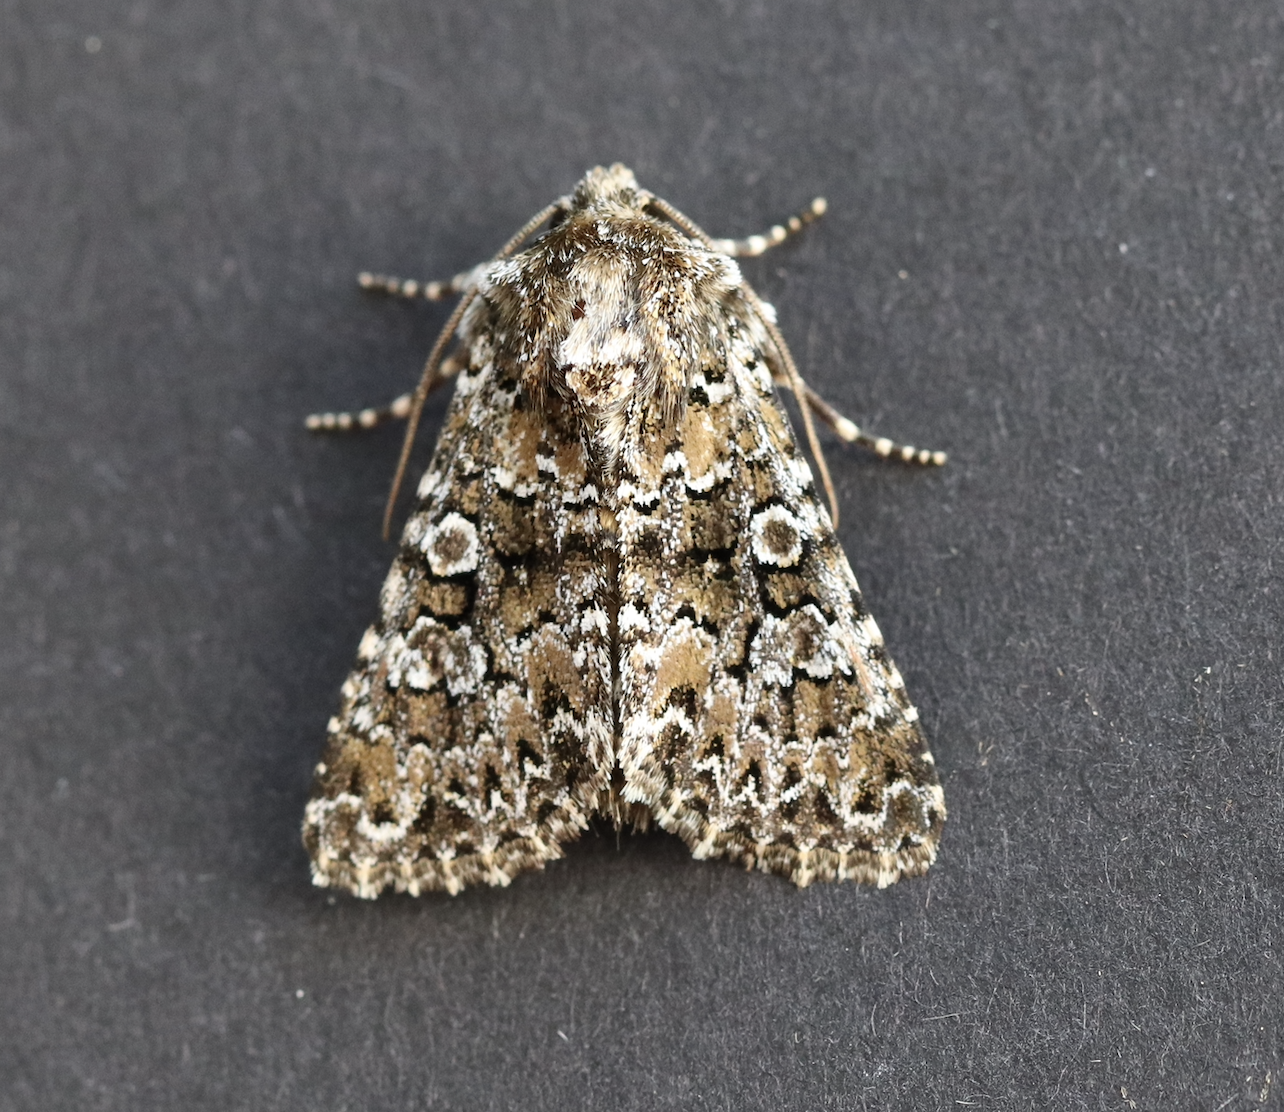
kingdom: Animalia
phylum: Arthropoda
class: Insecta
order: Lepidoptera
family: Noctuidae
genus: Hadena
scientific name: Hadena magnolii
